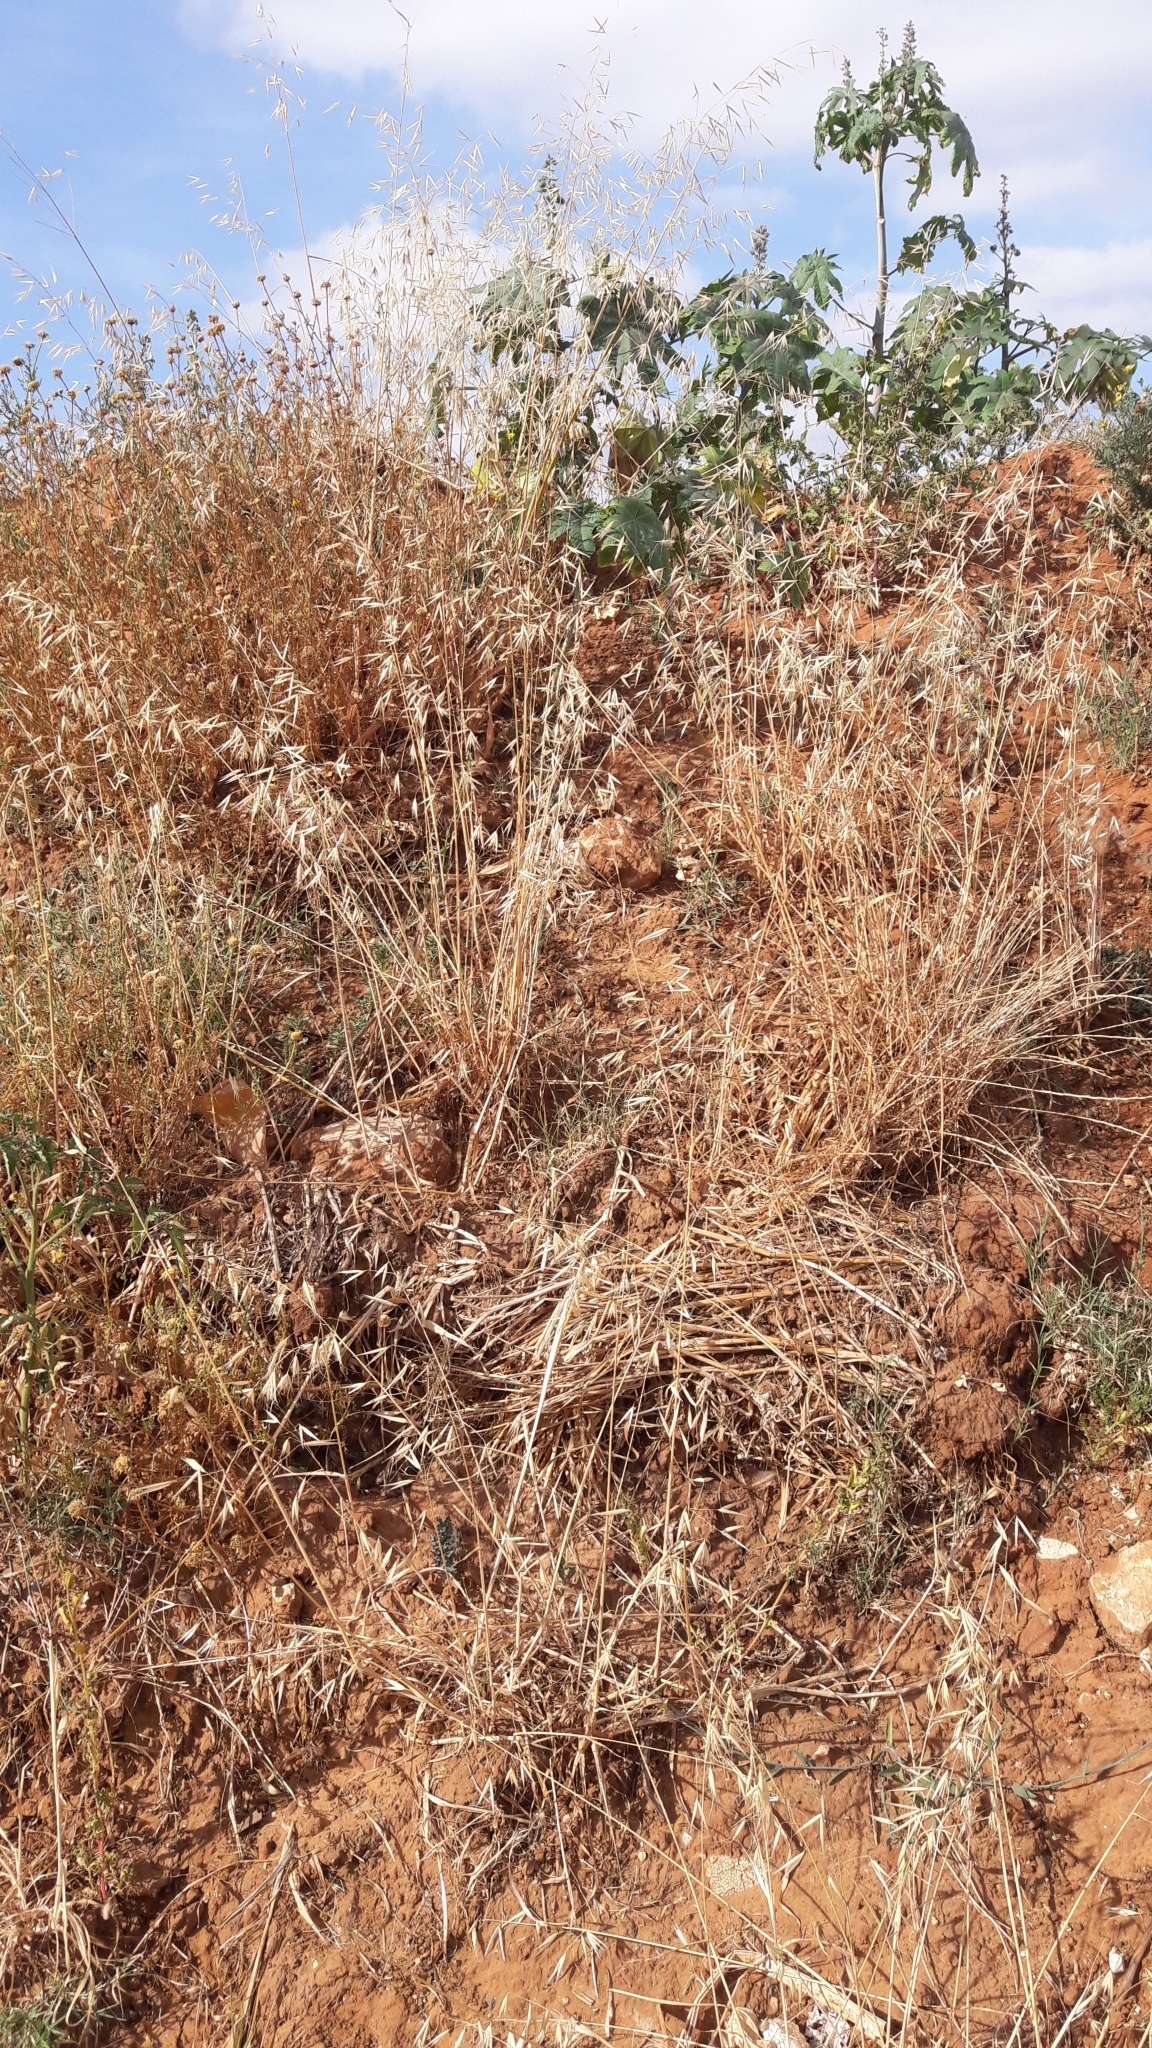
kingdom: Plantae
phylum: Tracheophyta
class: Liliopsida
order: Poales
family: Poaceae
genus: Avena
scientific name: Avena
